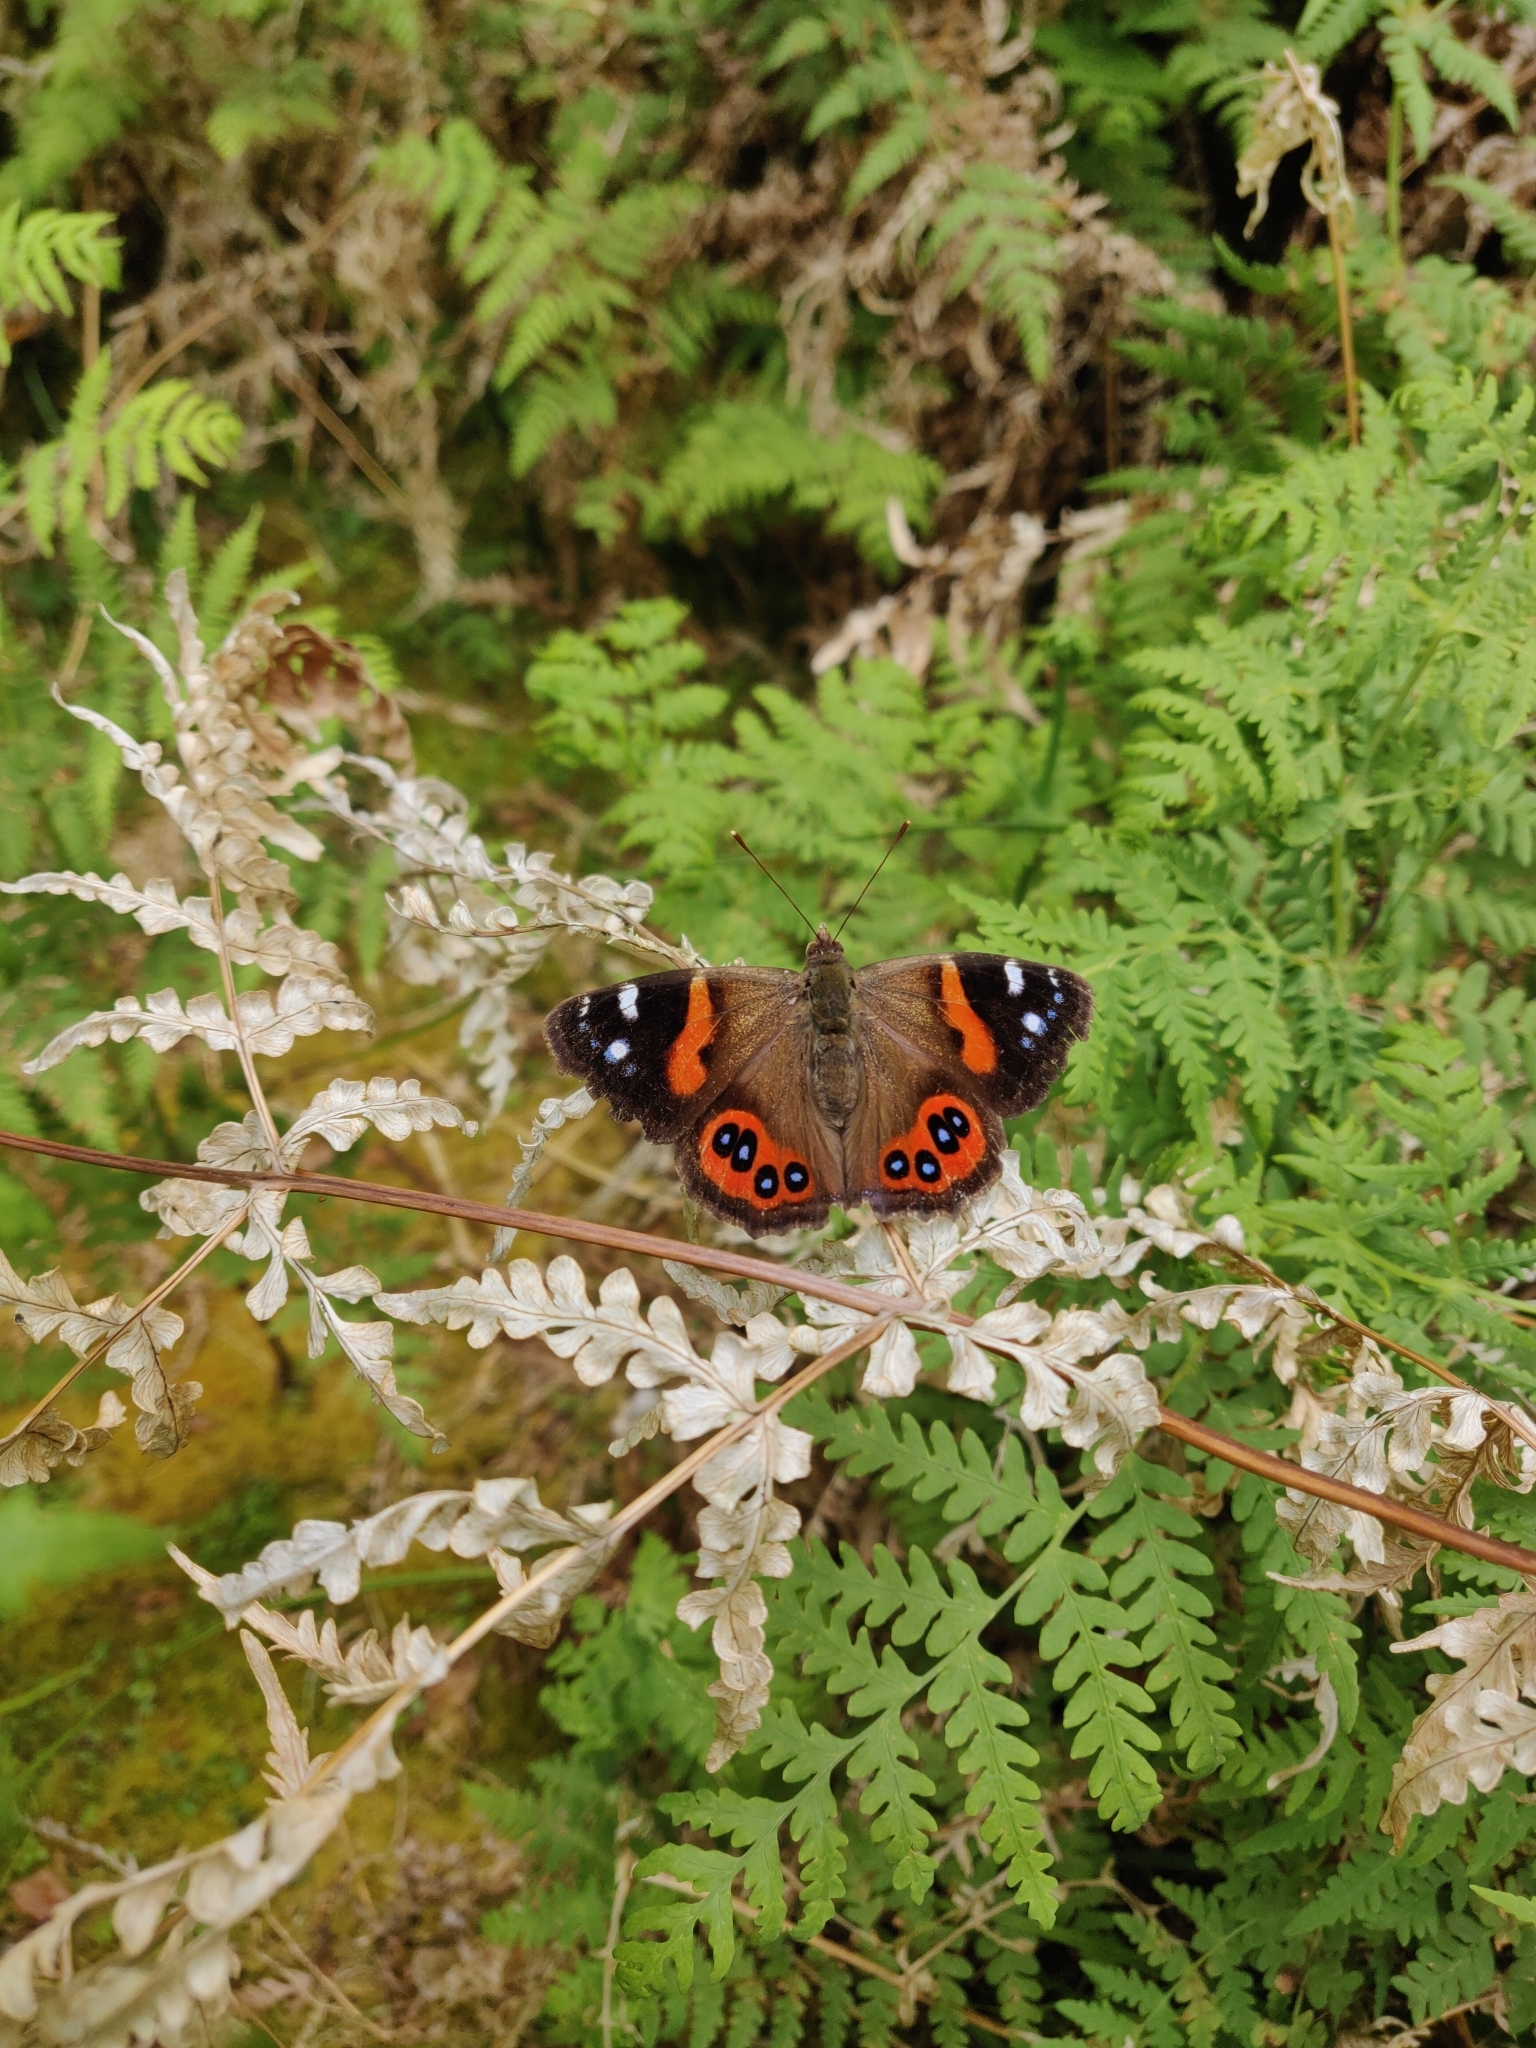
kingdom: Animalia
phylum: Arthropoda
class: Insecta
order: Lepidoptera
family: Nymphalidae
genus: Vanessa
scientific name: Vanessa gonerilla
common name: New zealand red admiral
